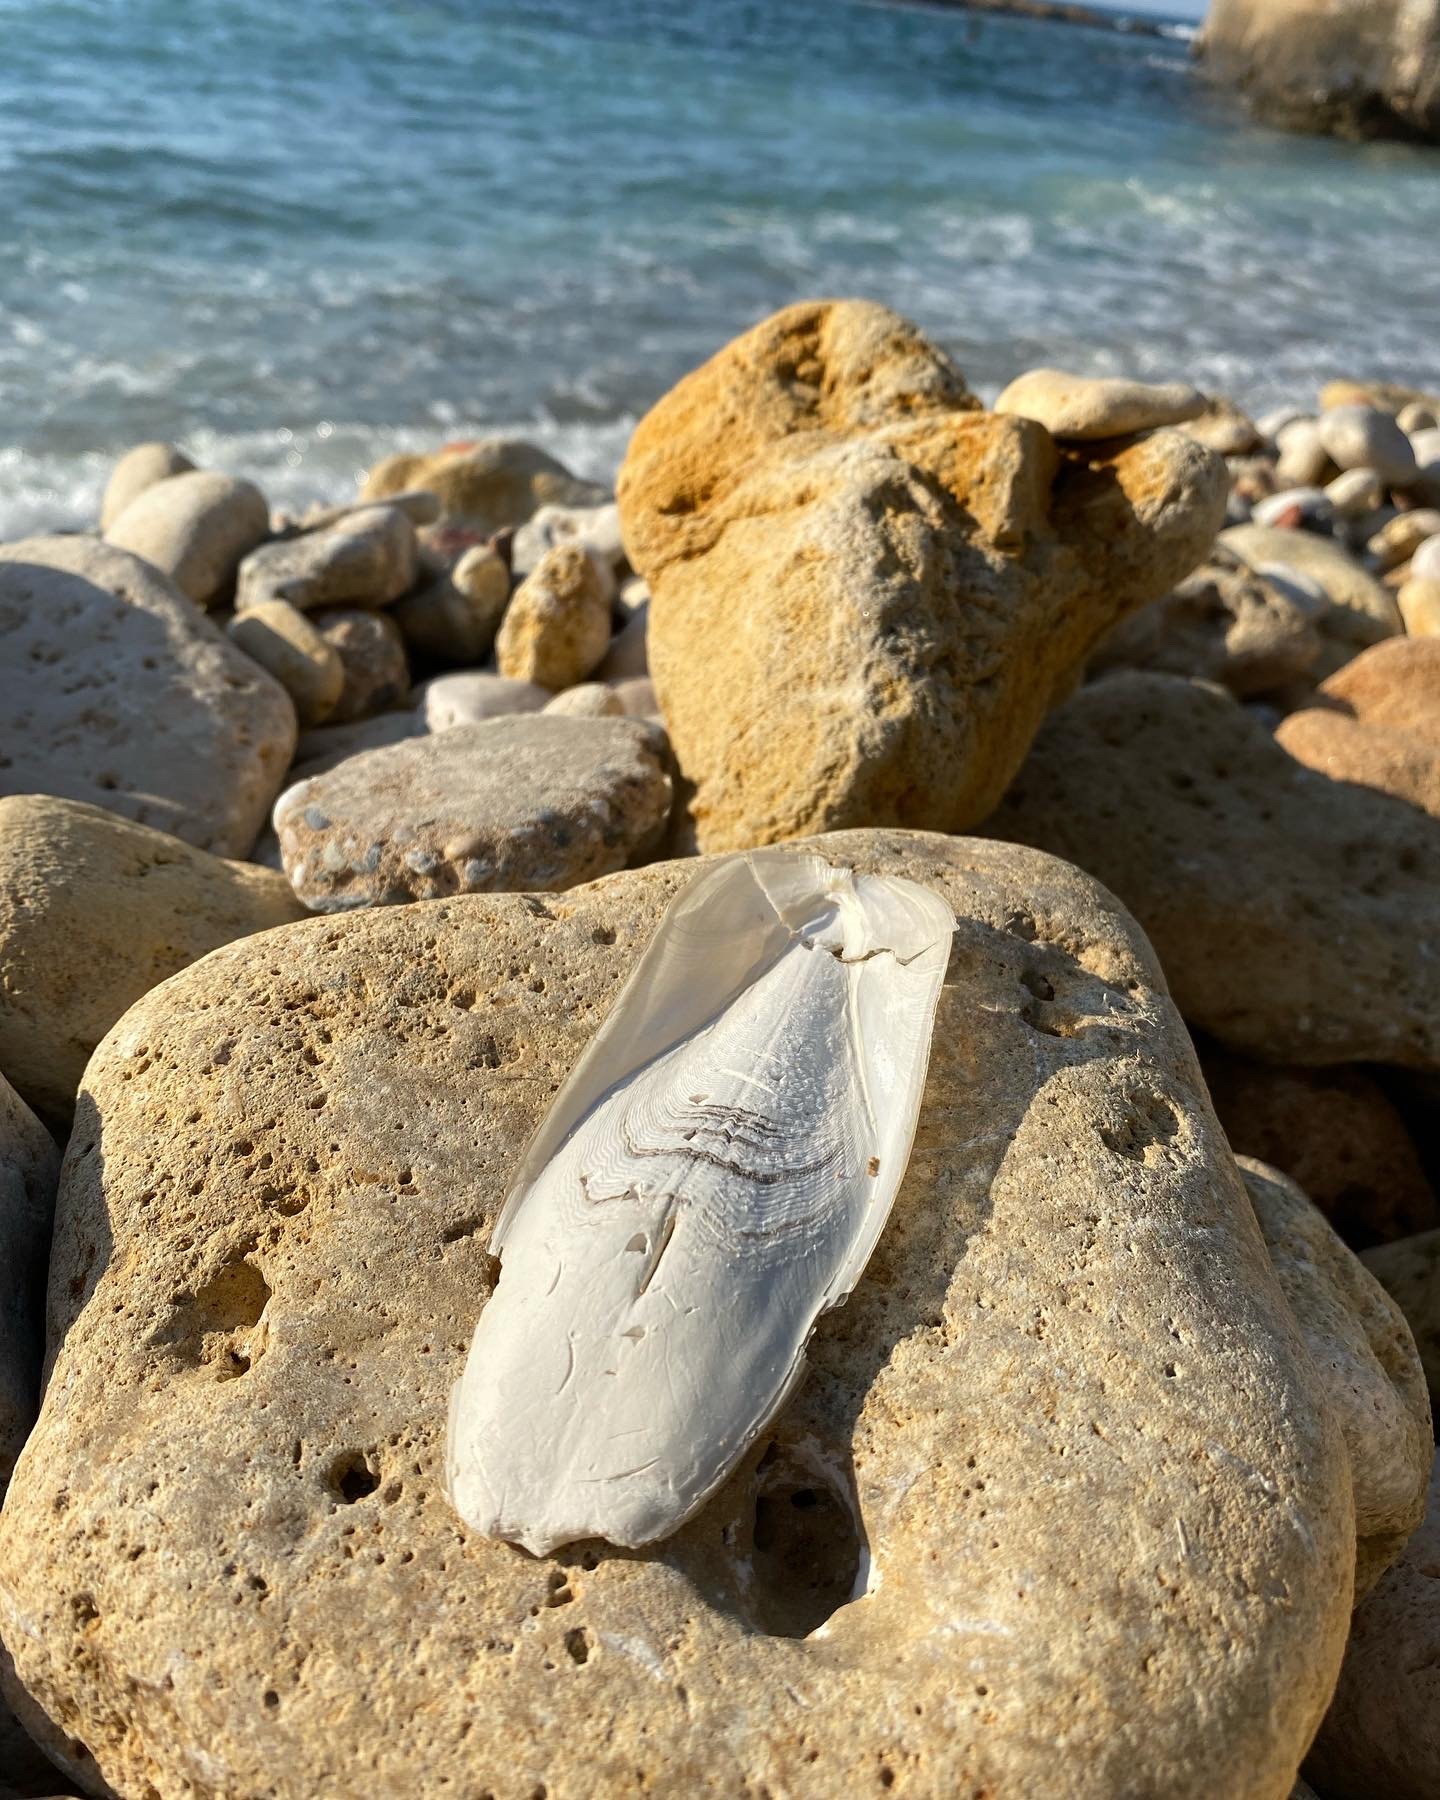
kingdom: Animalia
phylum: Mollusca
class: Cephalopoda
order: Sepiida
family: Sepiidae
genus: Sepia
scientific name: Sepia officinalis
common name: Common cuttlefish
